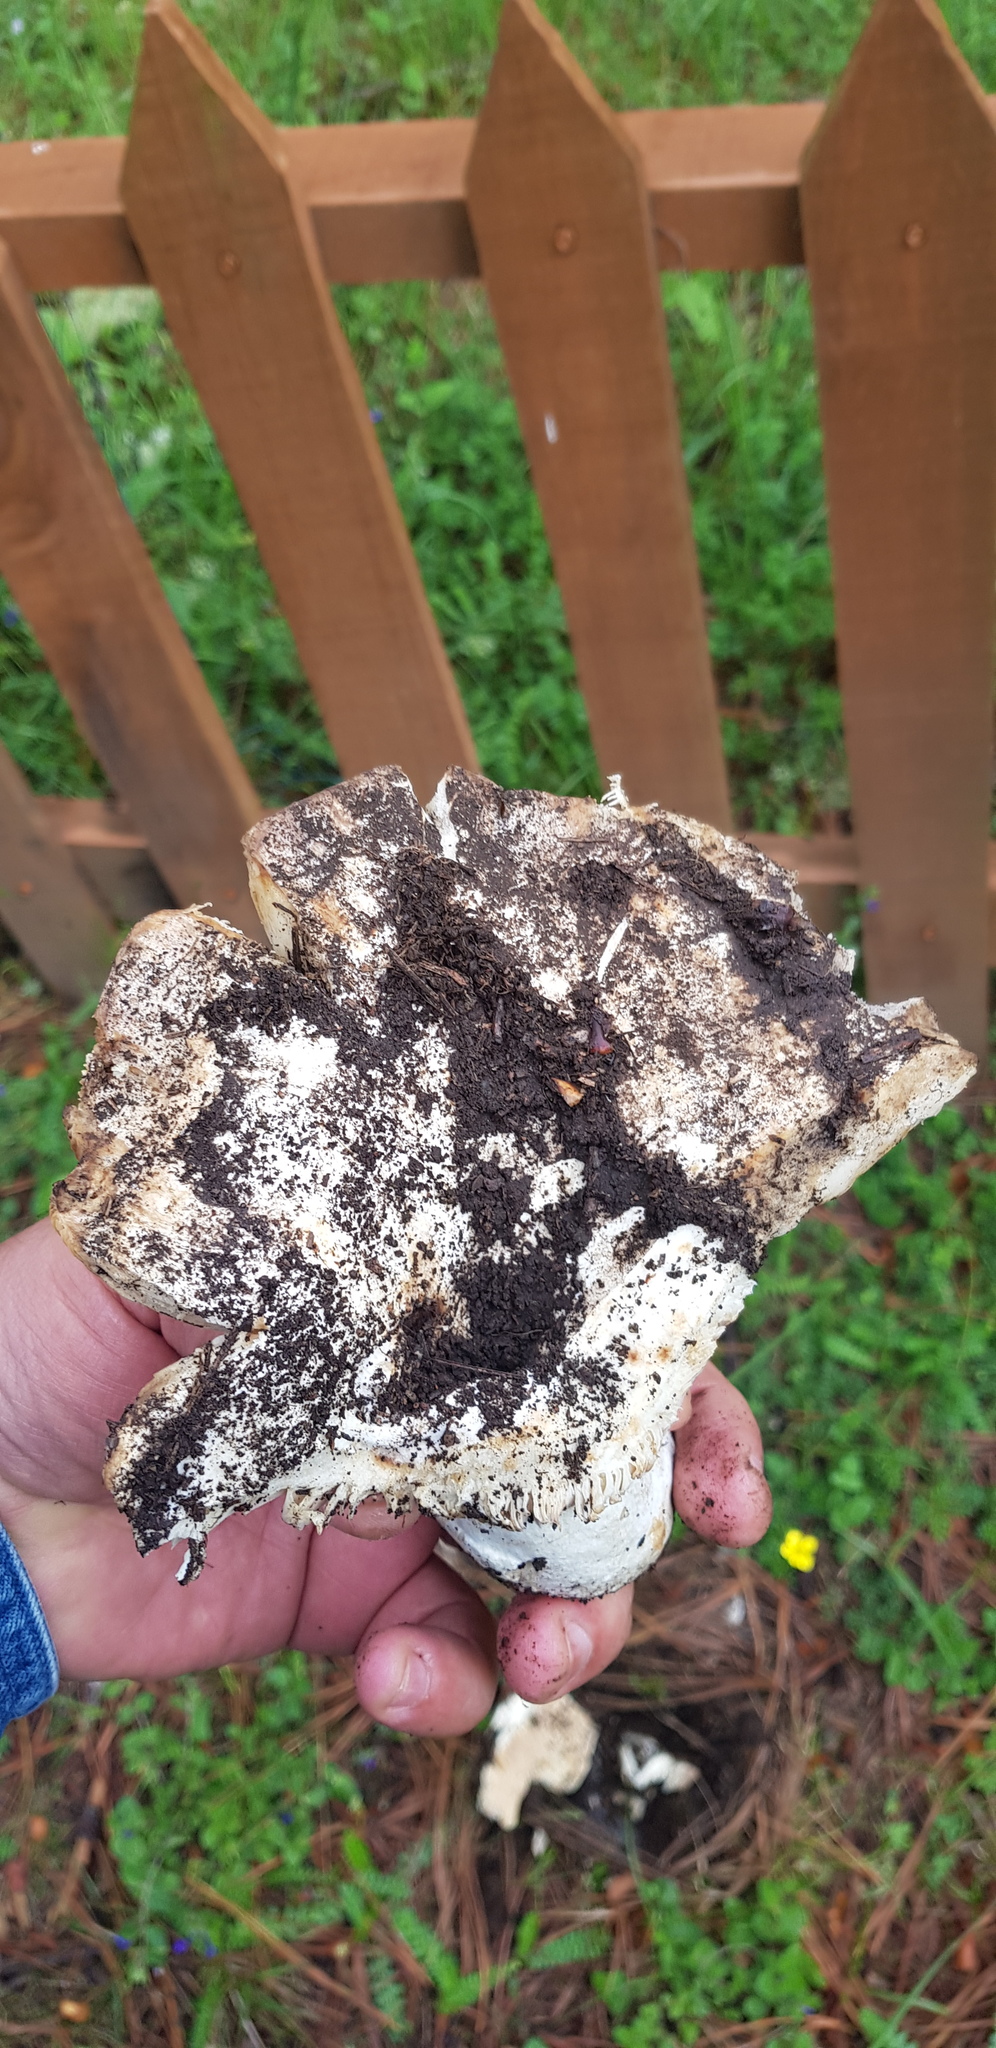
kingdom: Fungi
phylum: Basidiomycota
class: Agaricomycetes
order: Russulales
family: Russulaceae
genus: Russula
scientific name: Russula brevipes
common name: Short-stemmed russula
